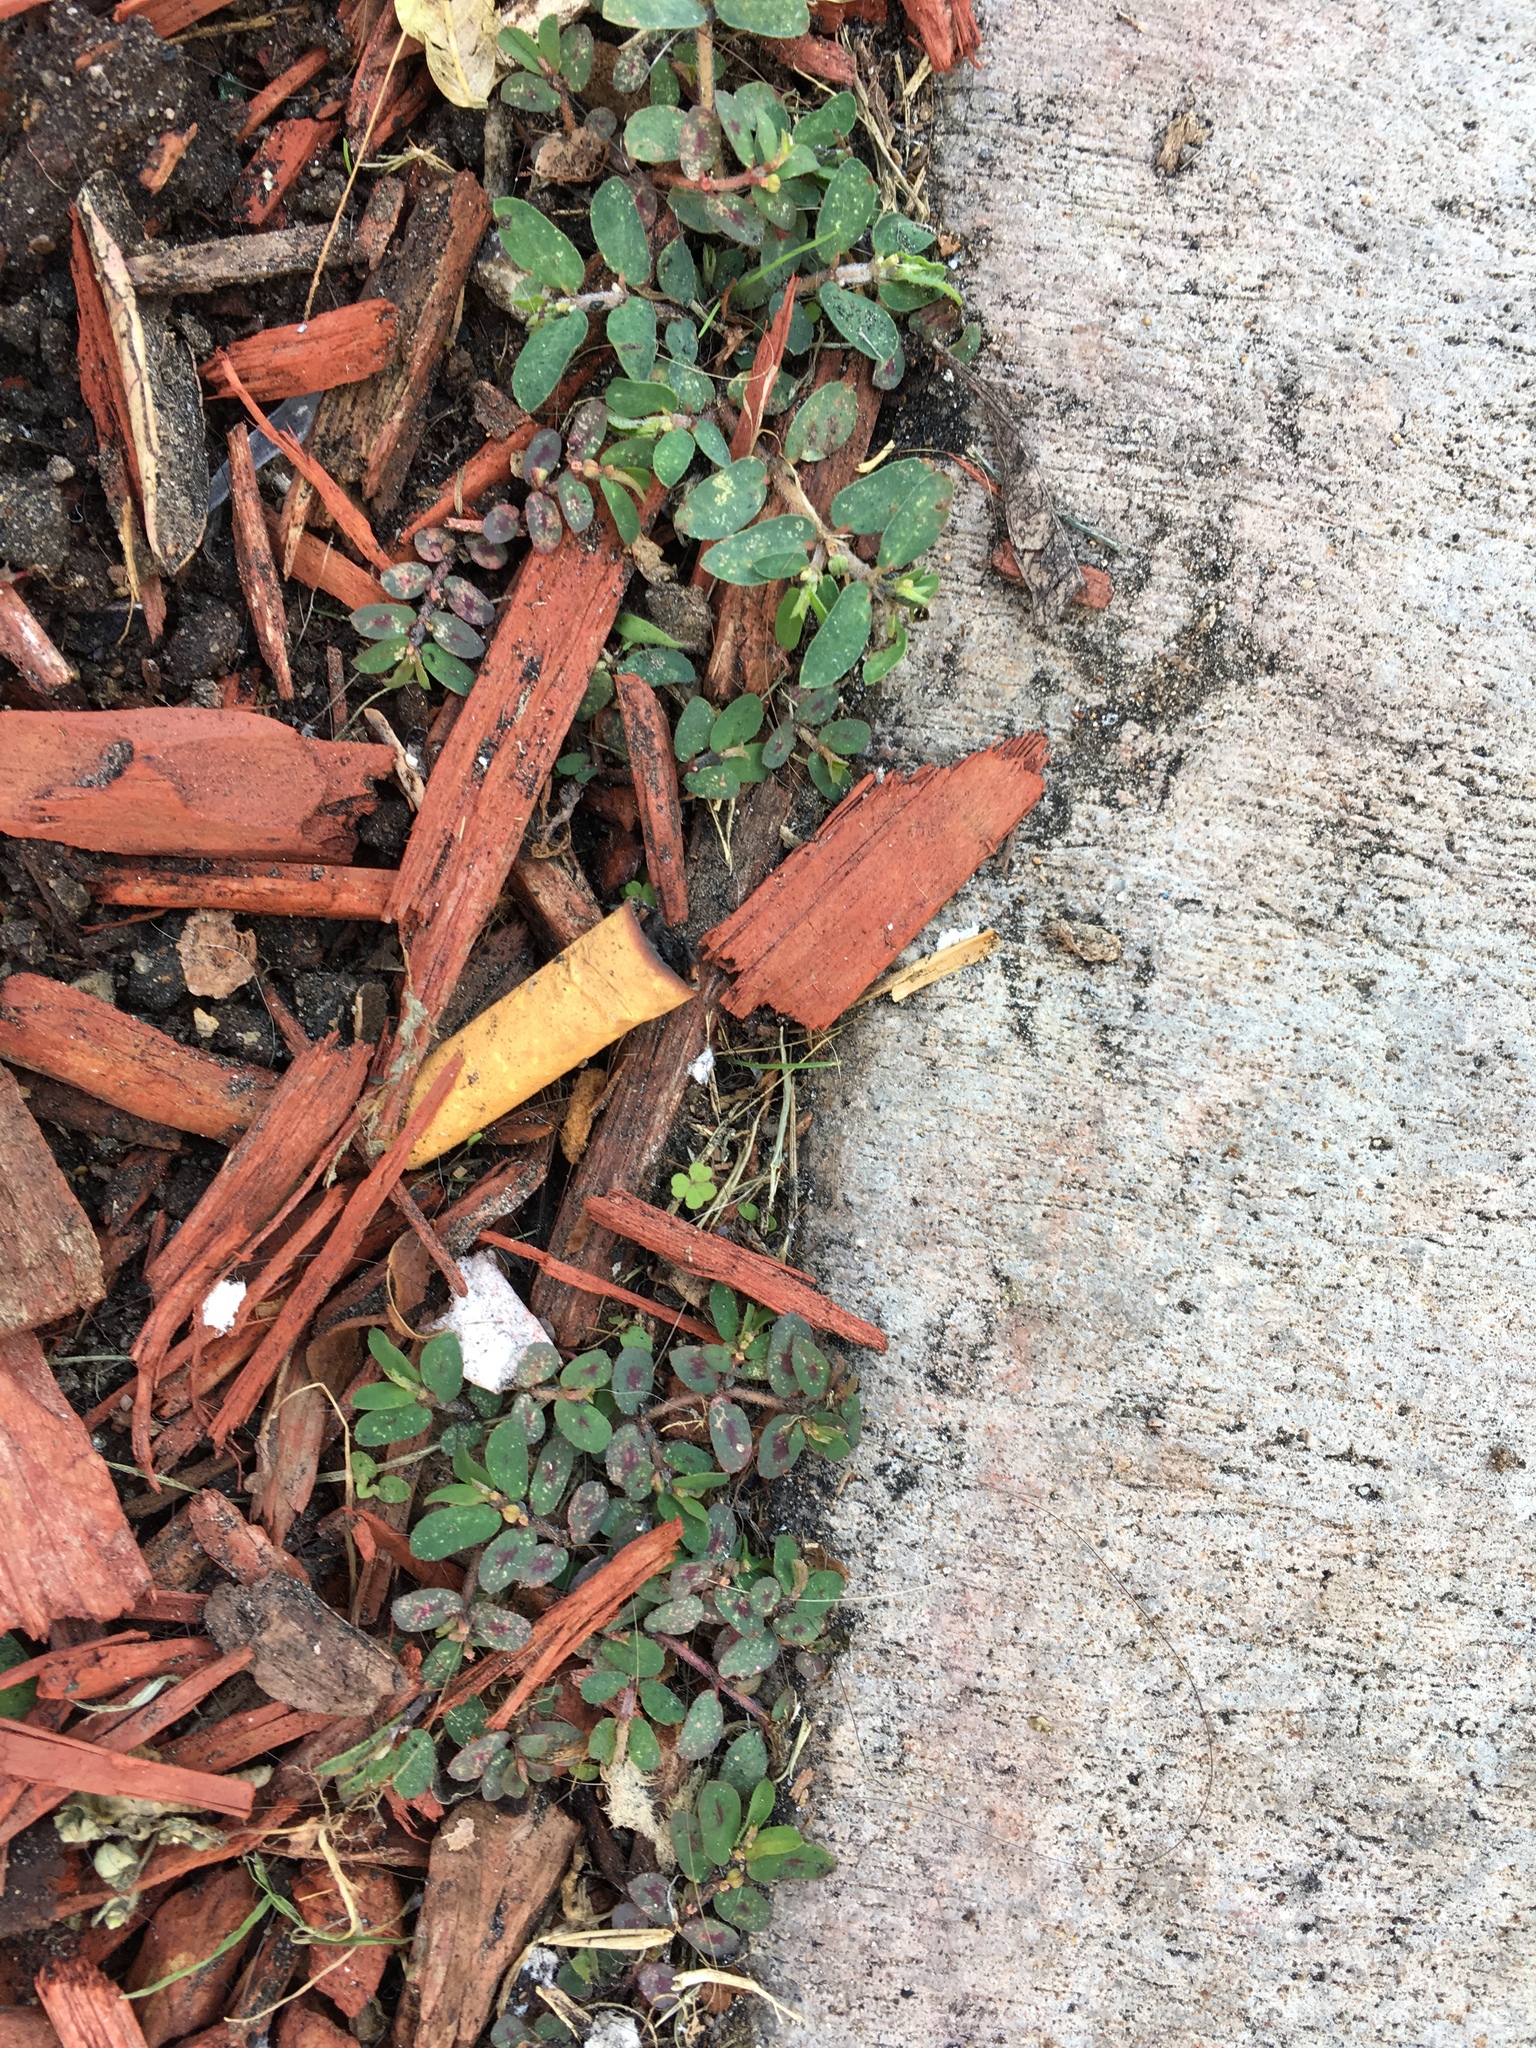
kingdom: Plantae
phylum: Tracheophyta
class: Magnoliopsida
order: Malpighiales
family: Euphorbiaceae
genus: Euphorbia
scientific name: Euphorbia maculata
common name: Spotted spurge
